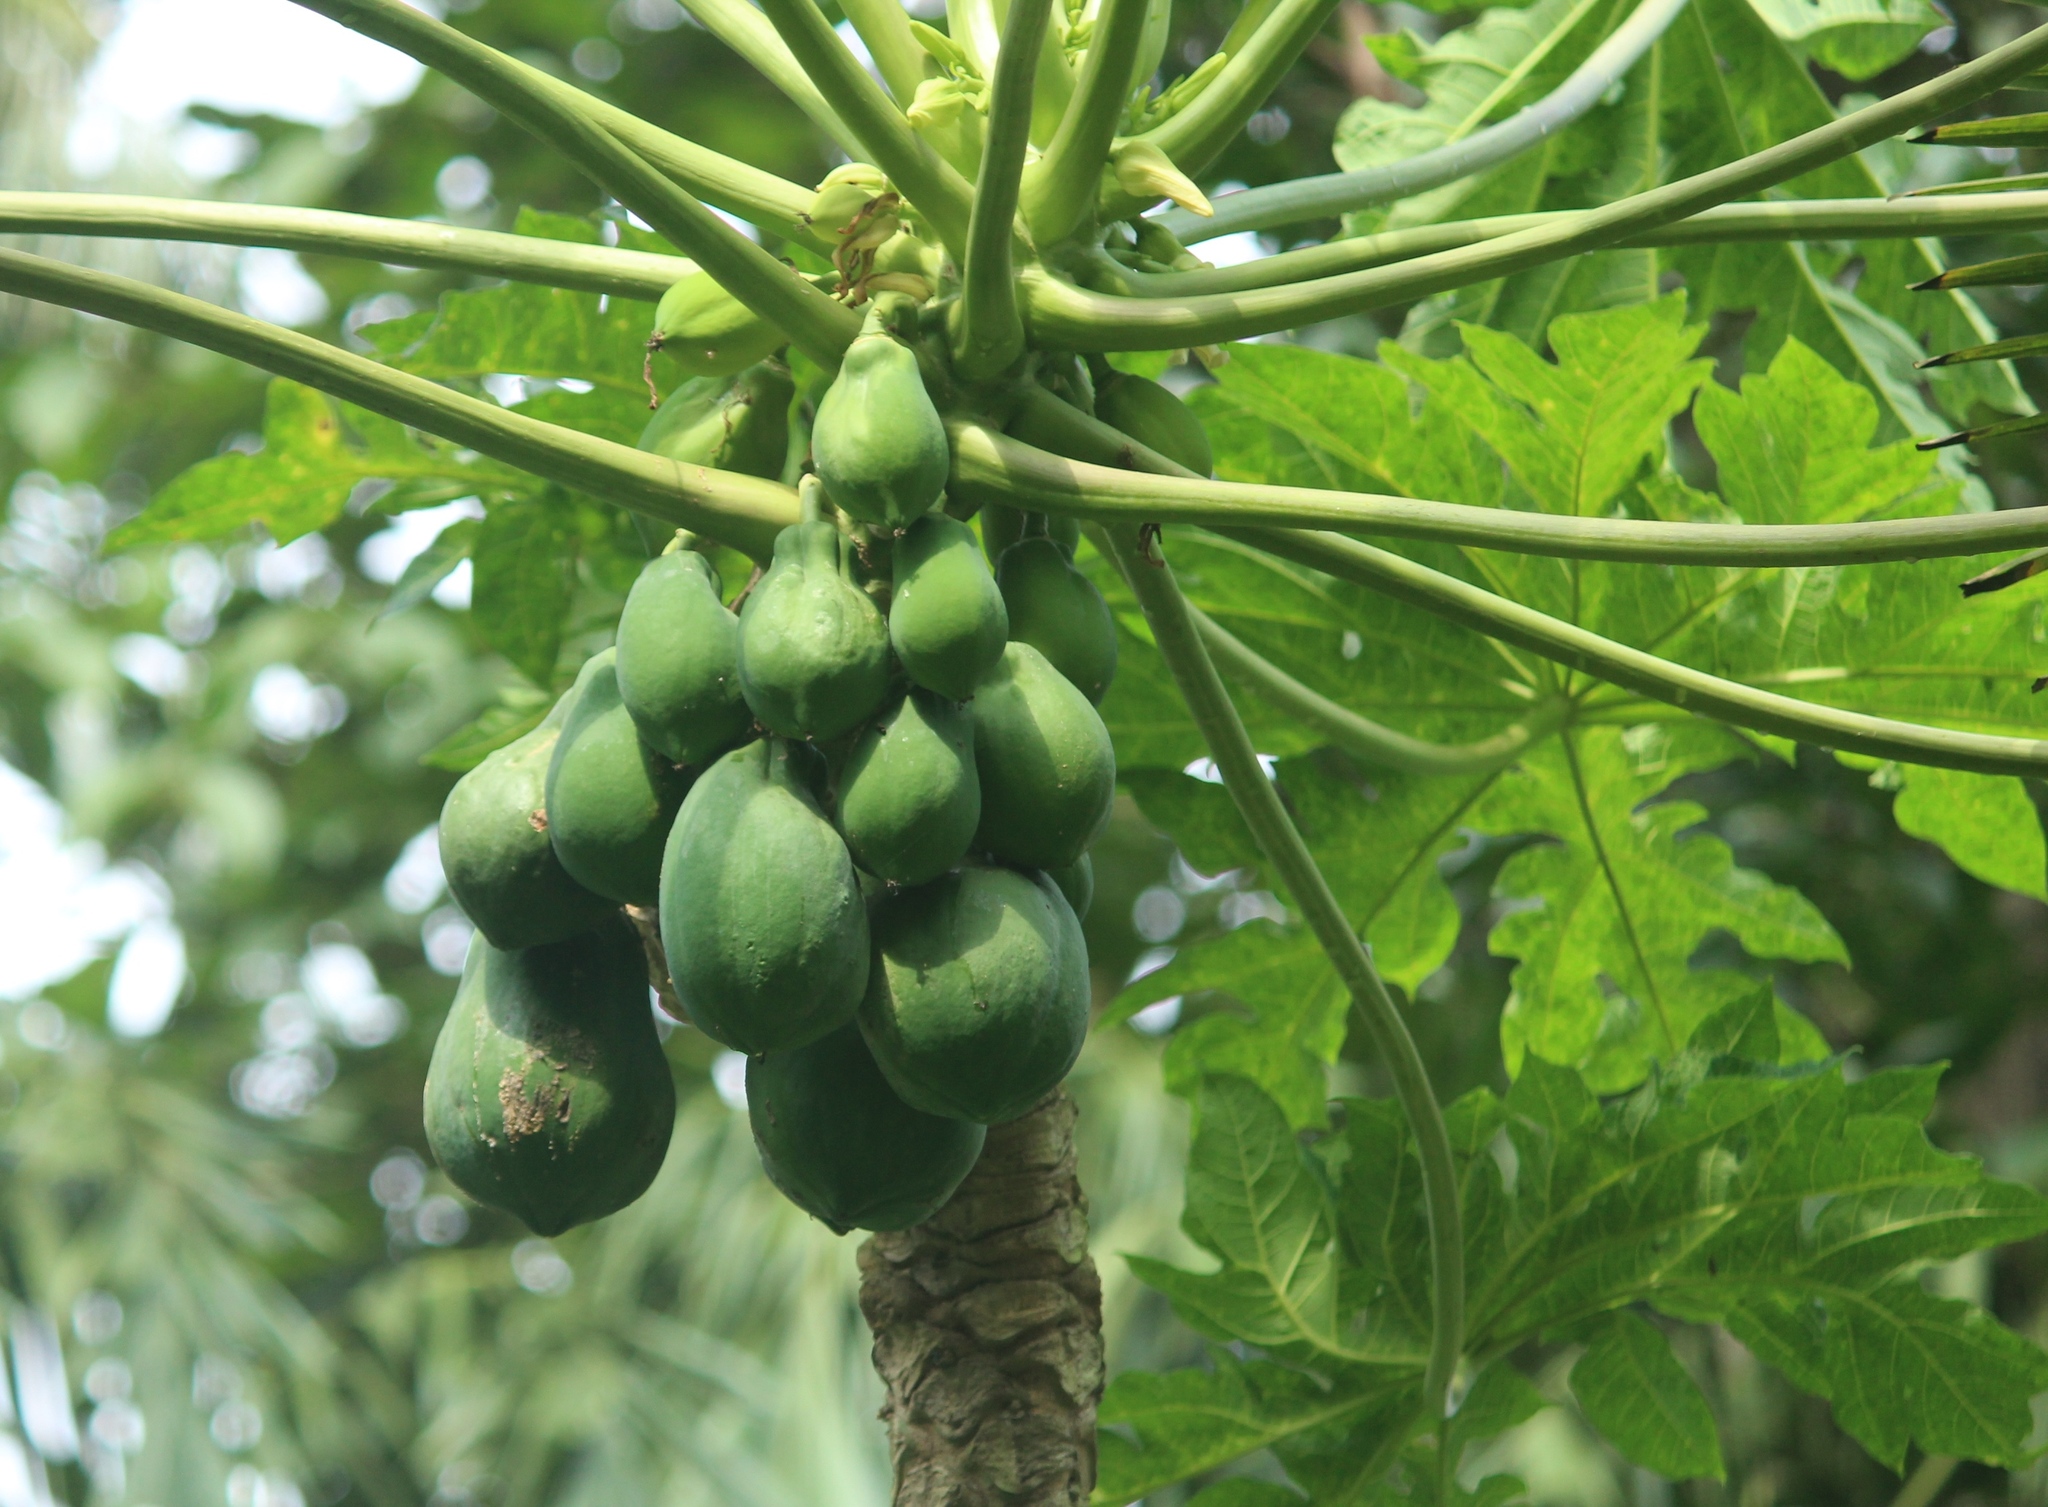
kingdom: Plantae
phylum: Tracheophyta
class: Magnoliopsida
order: Brassicales
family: Caricaceae
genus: Carica
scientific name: Carica papaya
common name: Papaya
